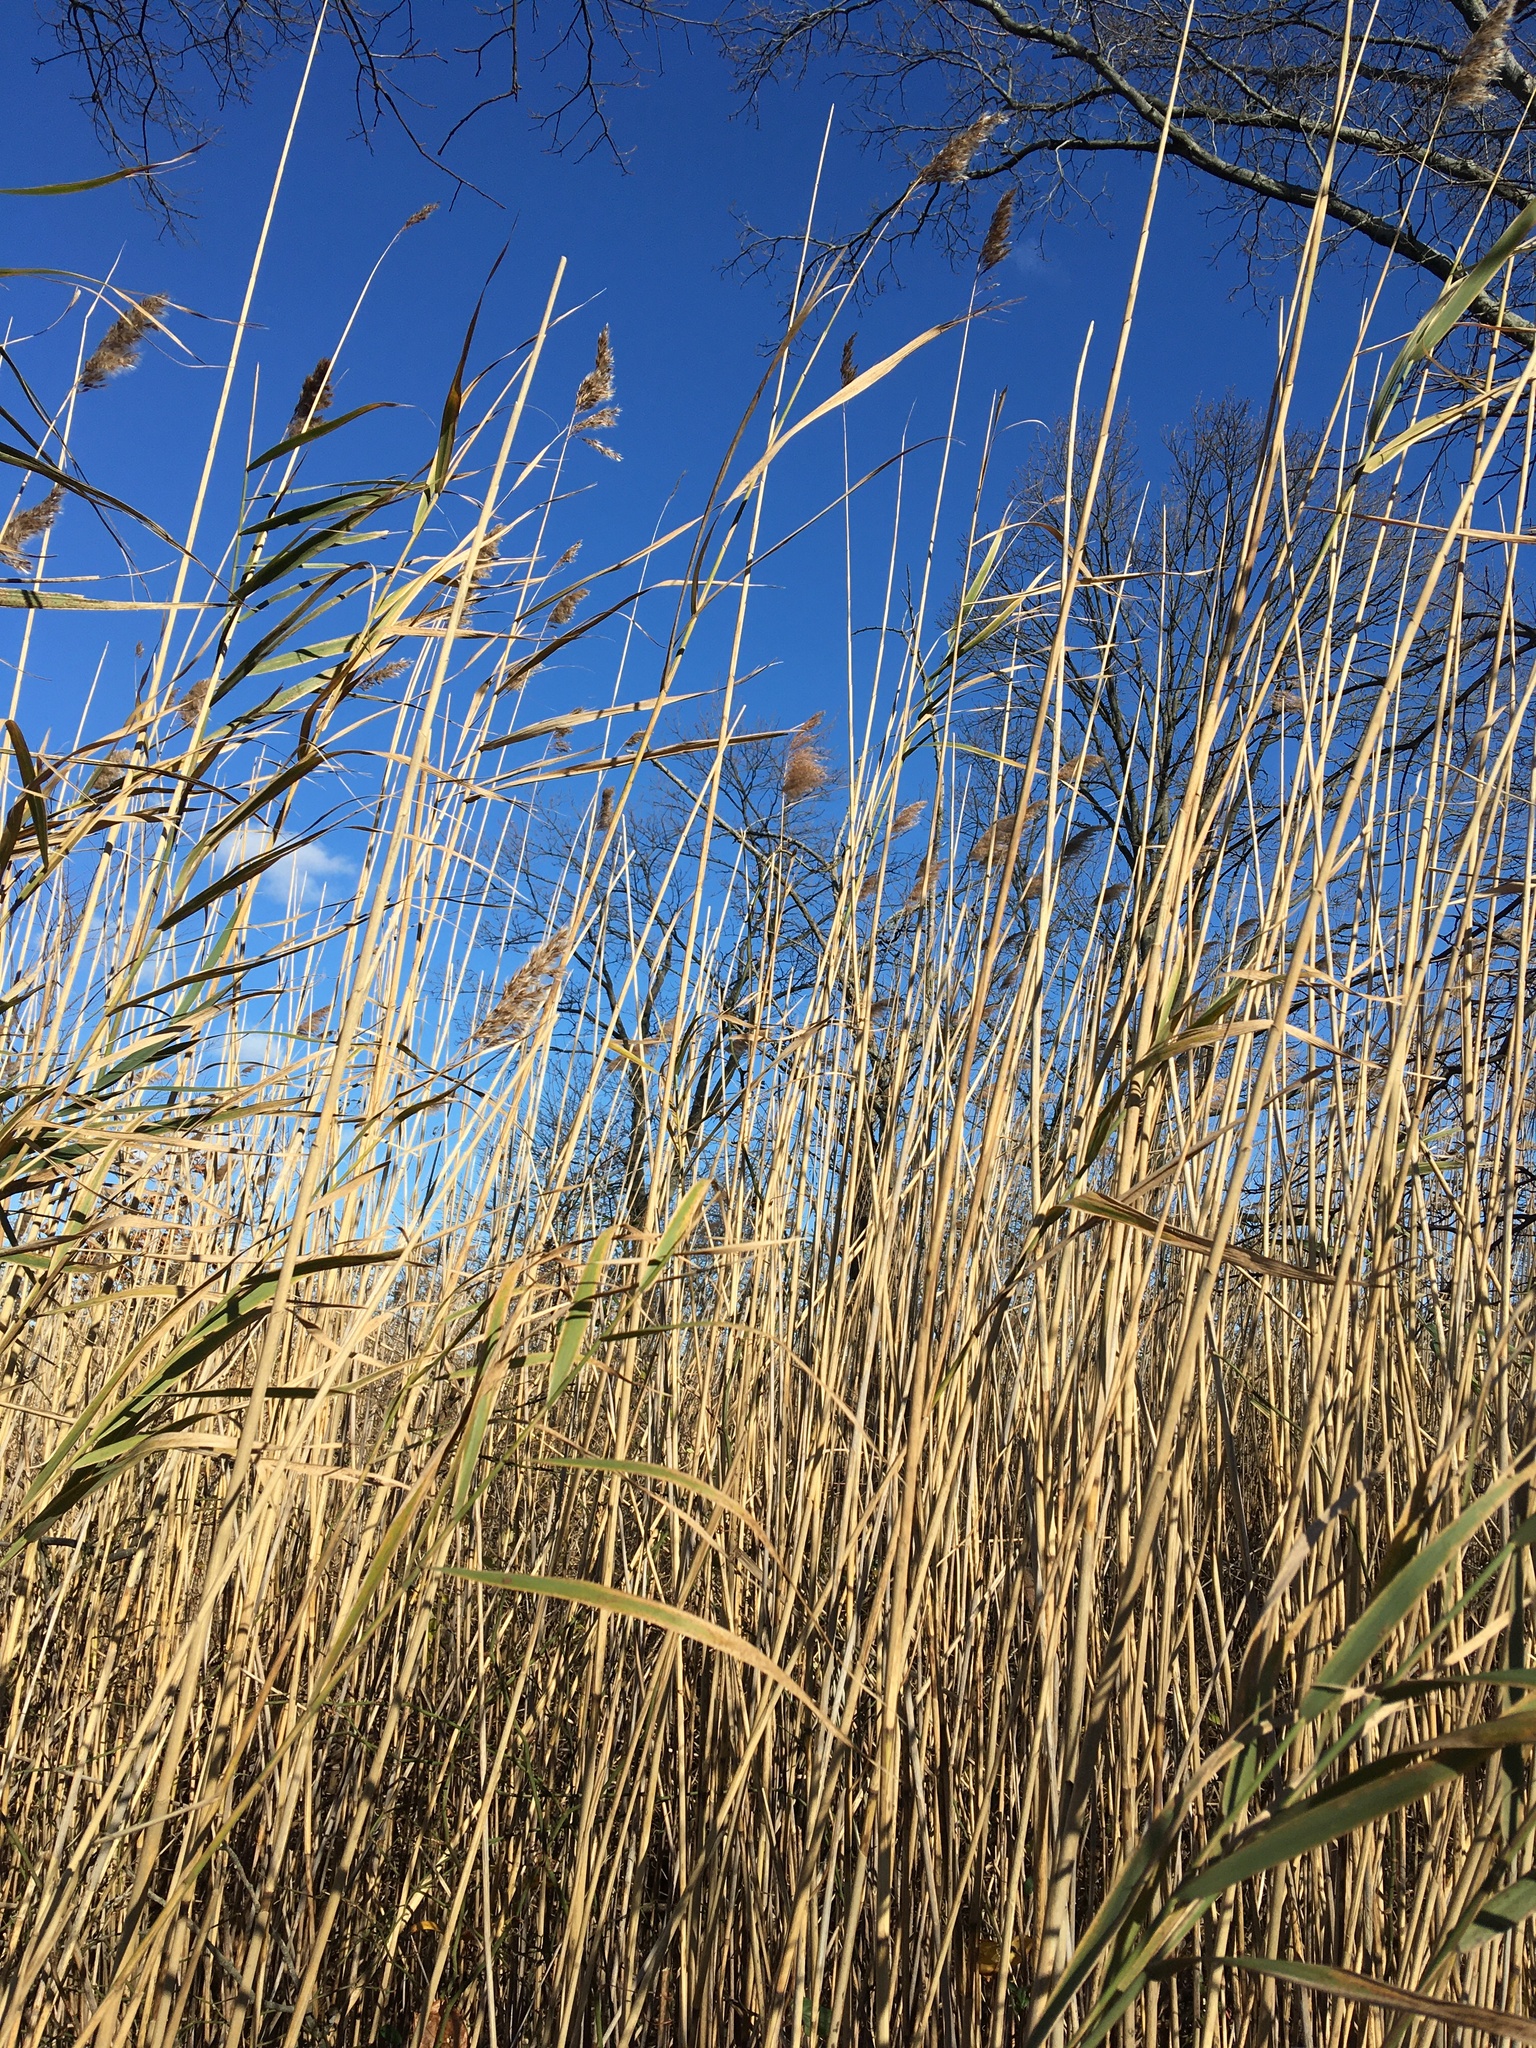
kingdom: Plantae
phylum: Tracheophyta
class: Liliopsida
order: Poales
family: Poaceae
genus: Phragmites
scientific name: Phragmites australis
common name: Common reed
